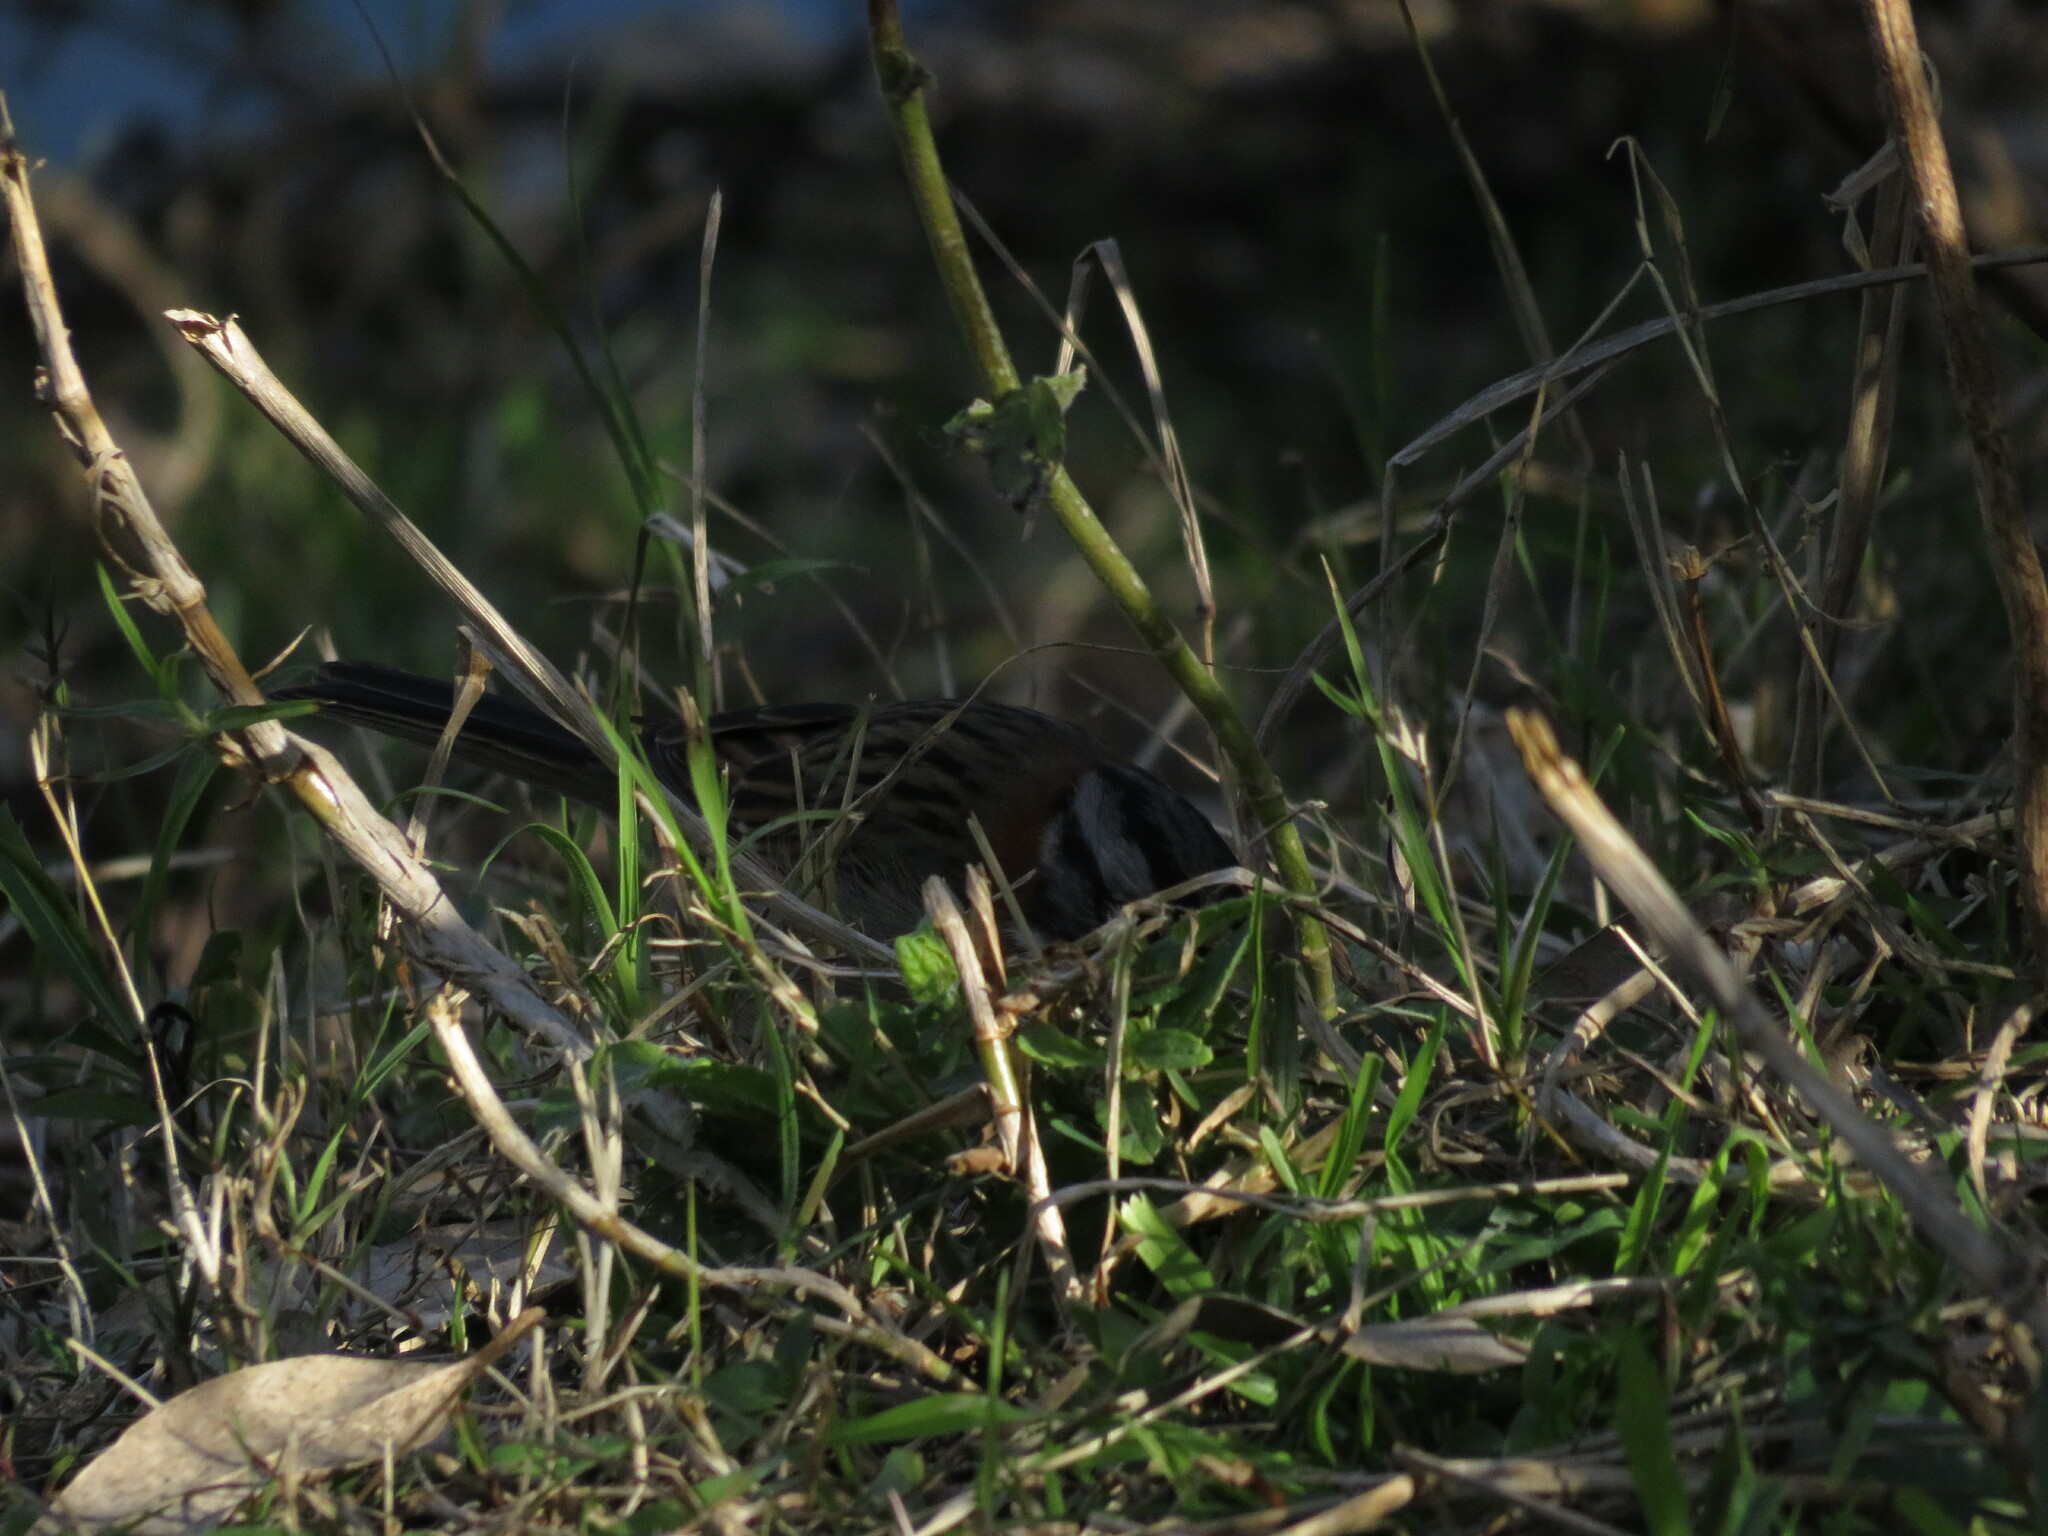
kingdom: Animalia
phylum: Chordata
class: Aves
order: Passeriformes
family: Passerellidae
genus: Zonotrichia
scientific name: Zonotrichia capensis
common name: Rufous-collared sparrow
